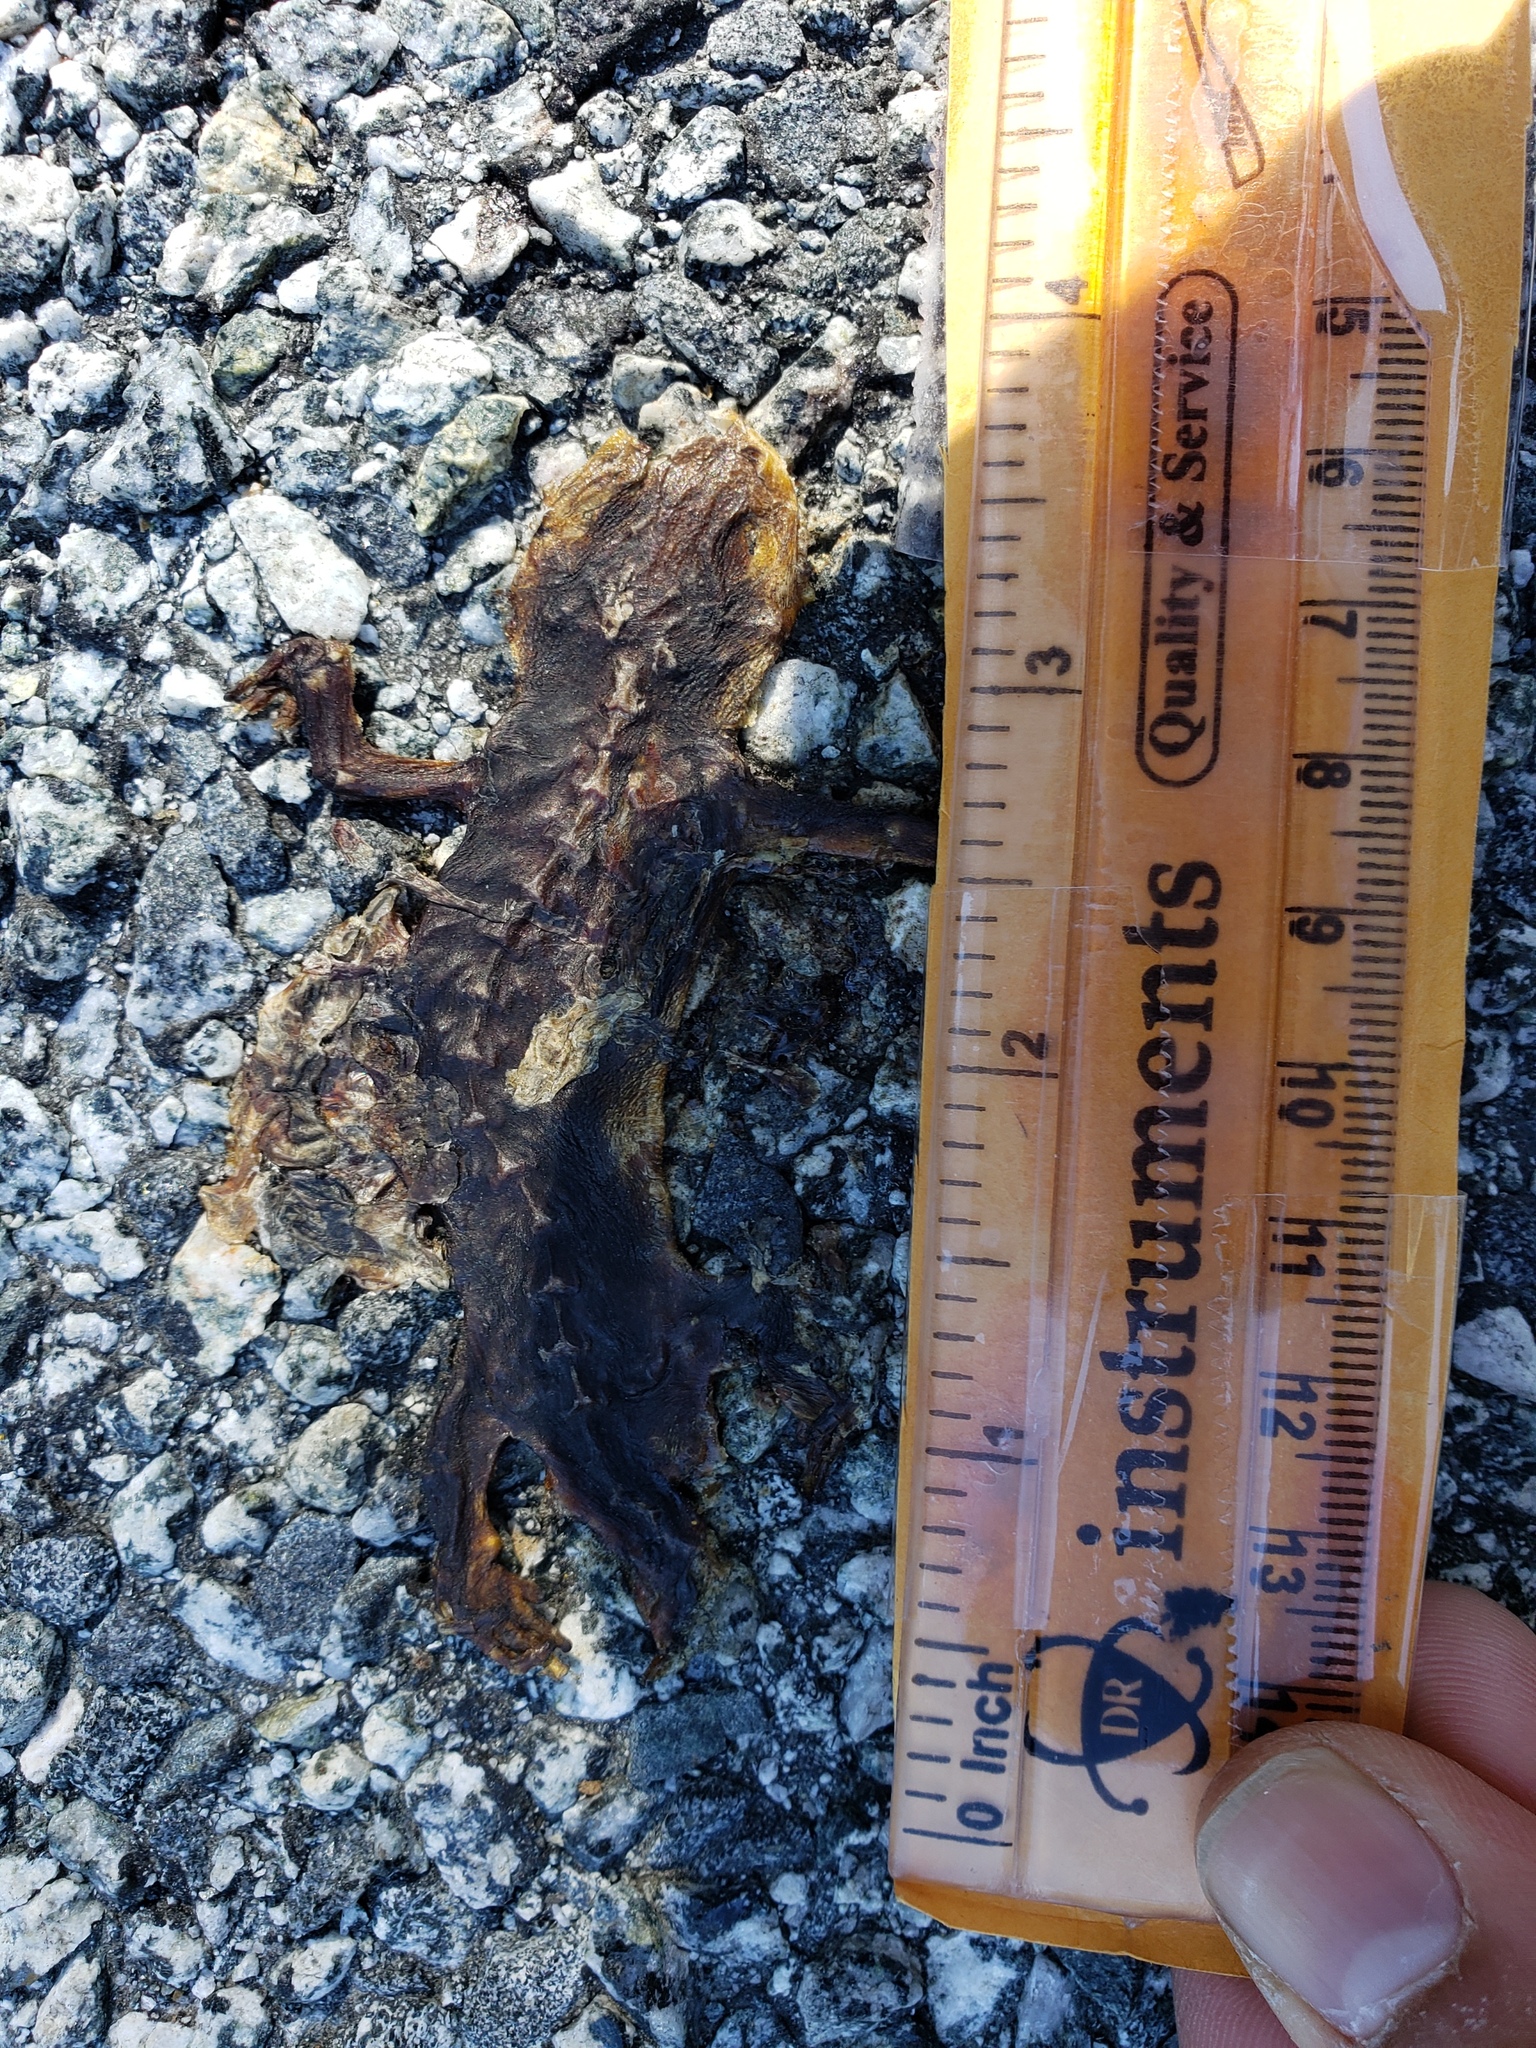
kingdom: Animalia
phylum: Chordata
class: Amphibia
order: Caudata
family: Salamandridae
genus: Taricha
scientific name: Taricha
